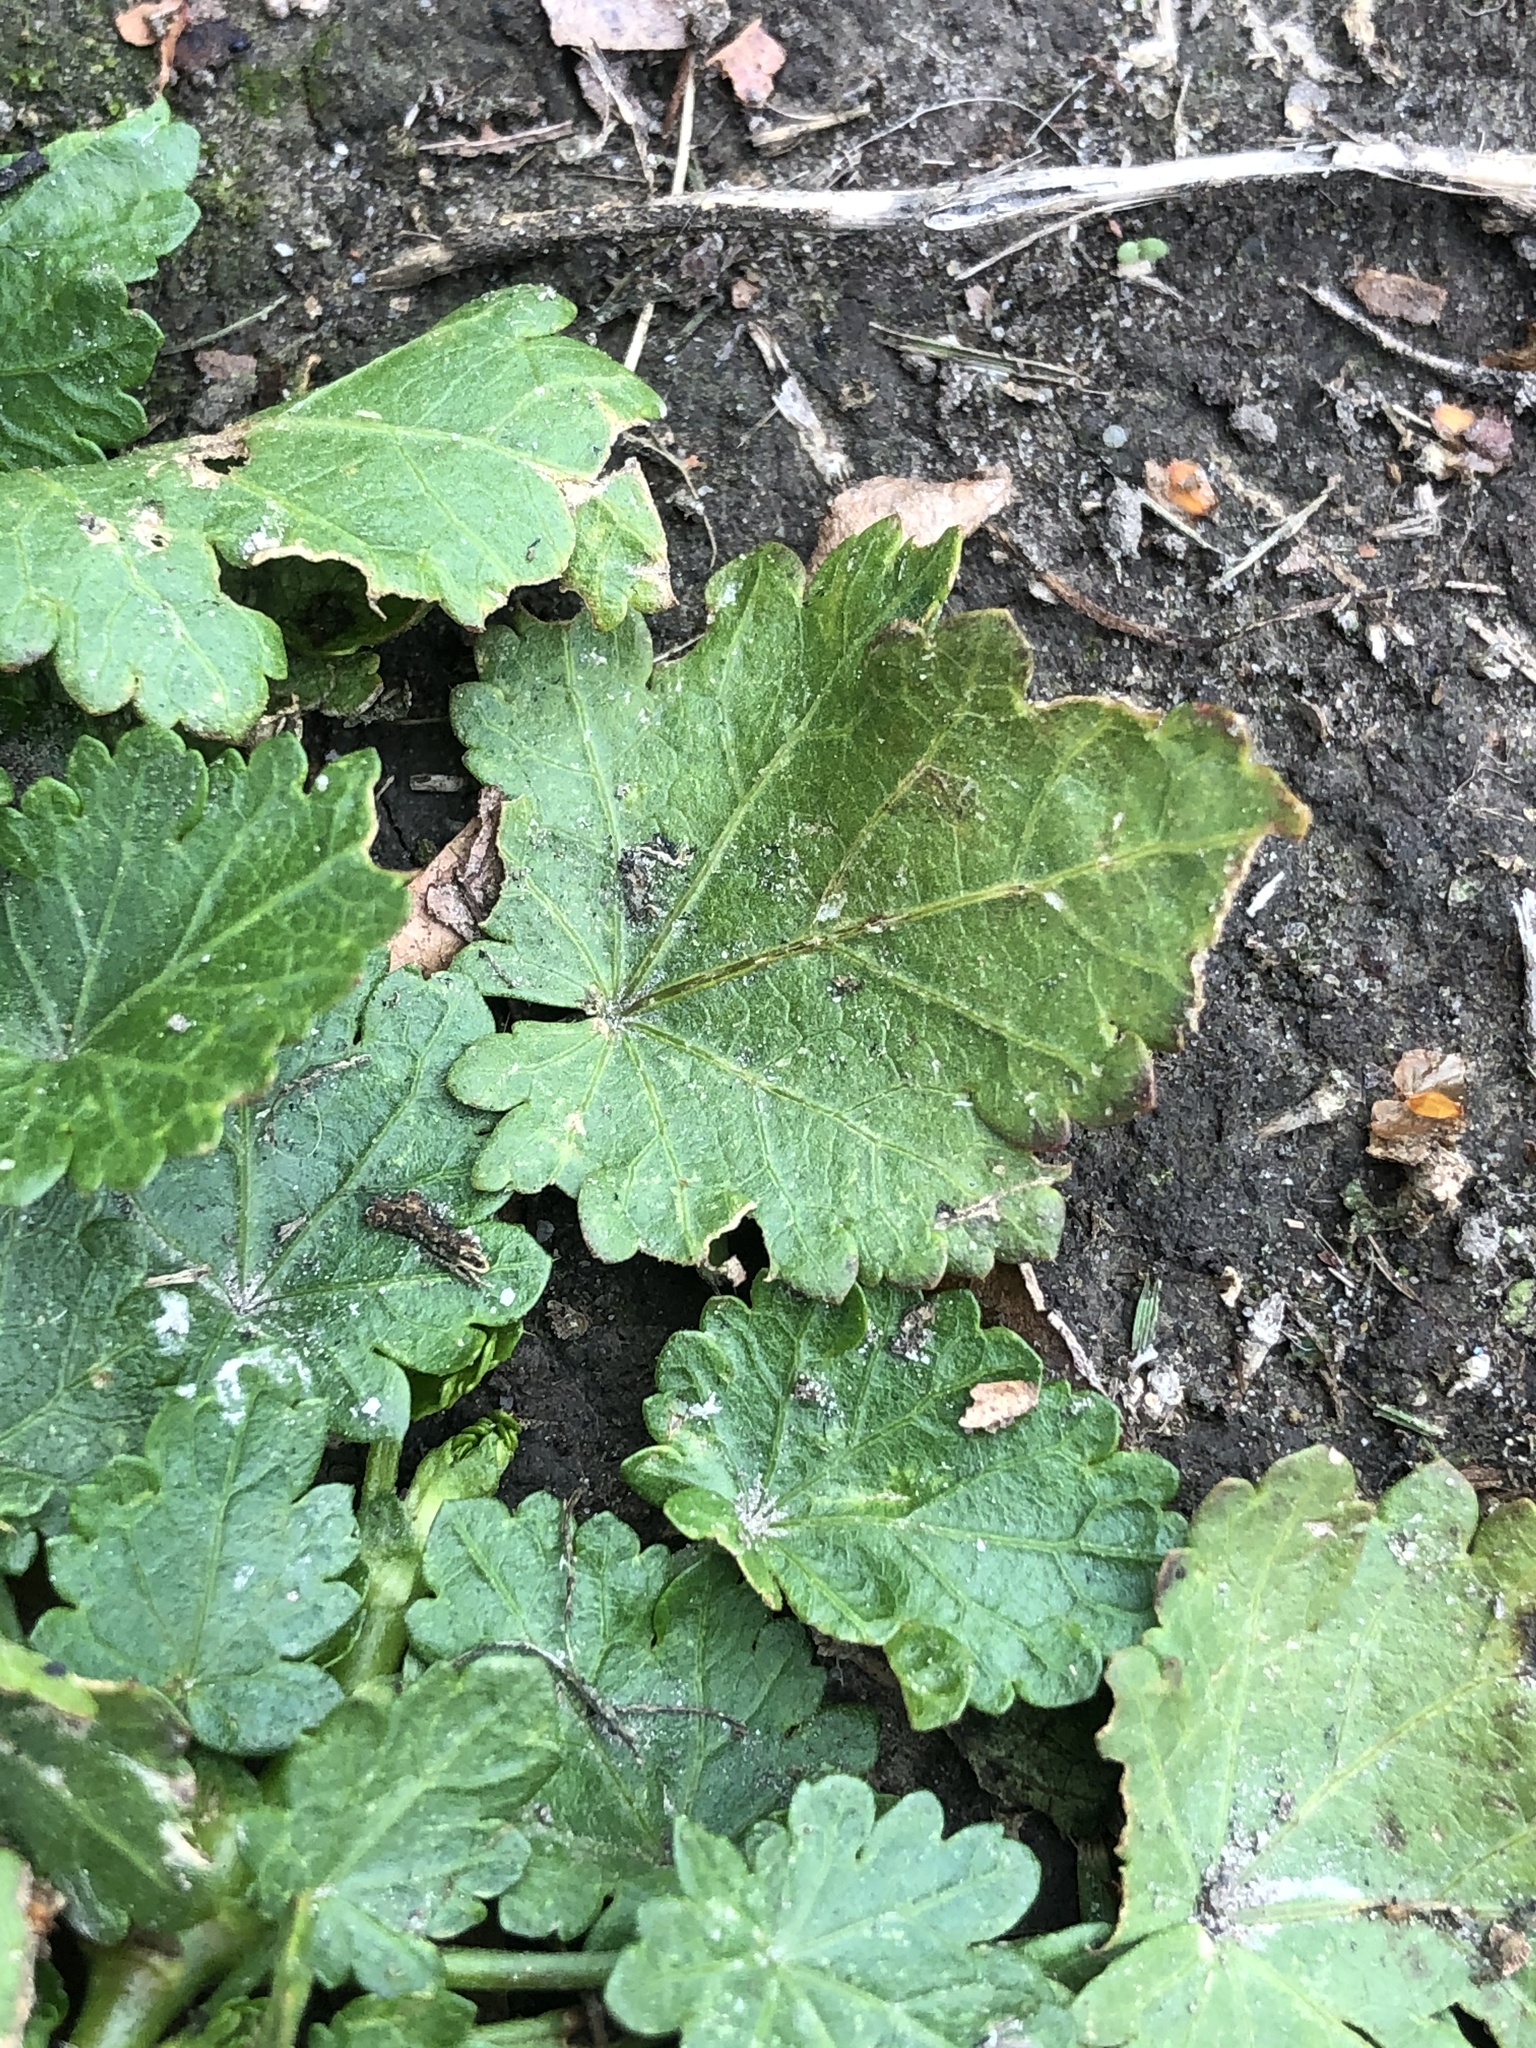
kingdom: Plantae
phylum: Tracheophyta
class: Magnoliopsida
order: Malvales
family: Malvaceae
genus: Modiola
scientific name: Modiola caroliniana
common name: Carolina bristlemallow
